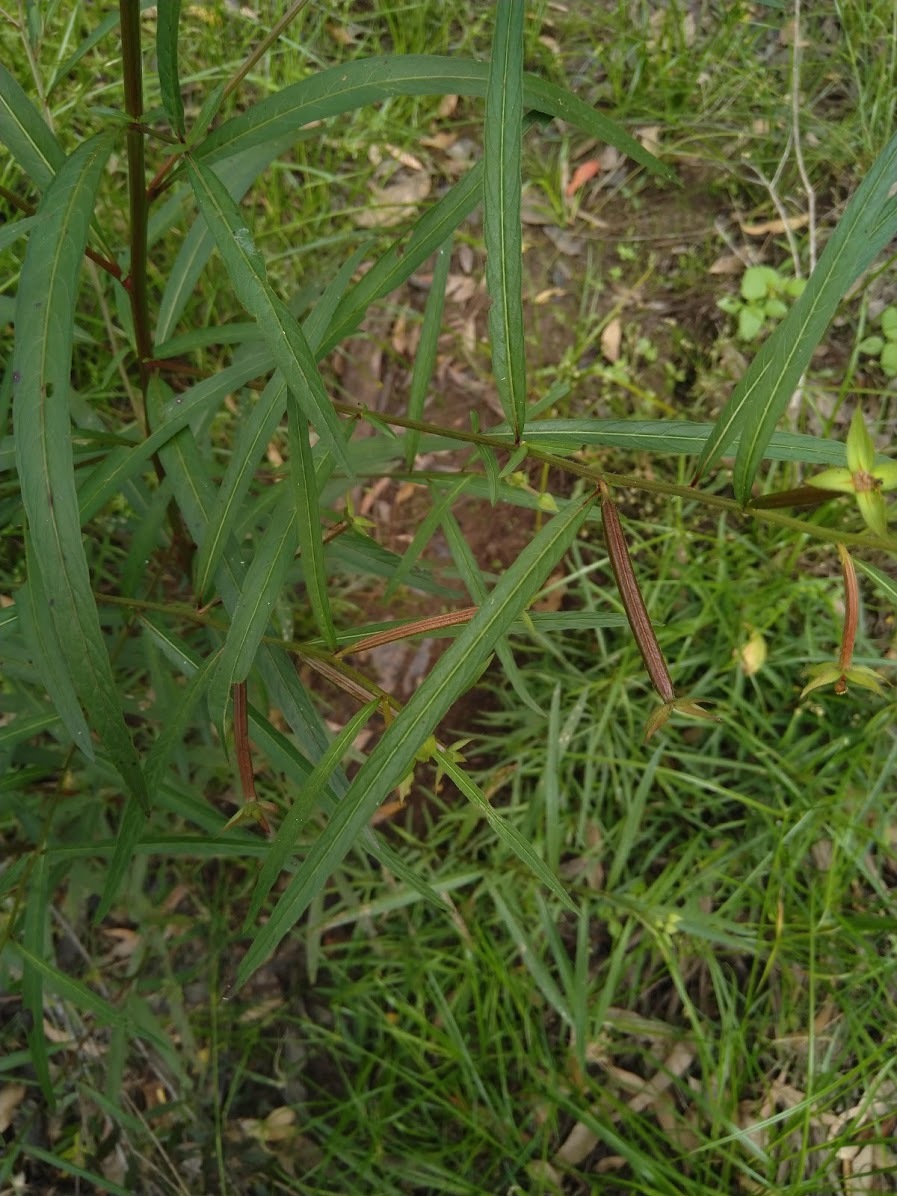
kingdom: Plantae
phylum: Tracheophyta
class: Magnoliopsida
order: Myrtales
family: Onagraceae
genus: Ludwigia
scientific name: Ludwigia octovalvis
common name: Water-primrose
